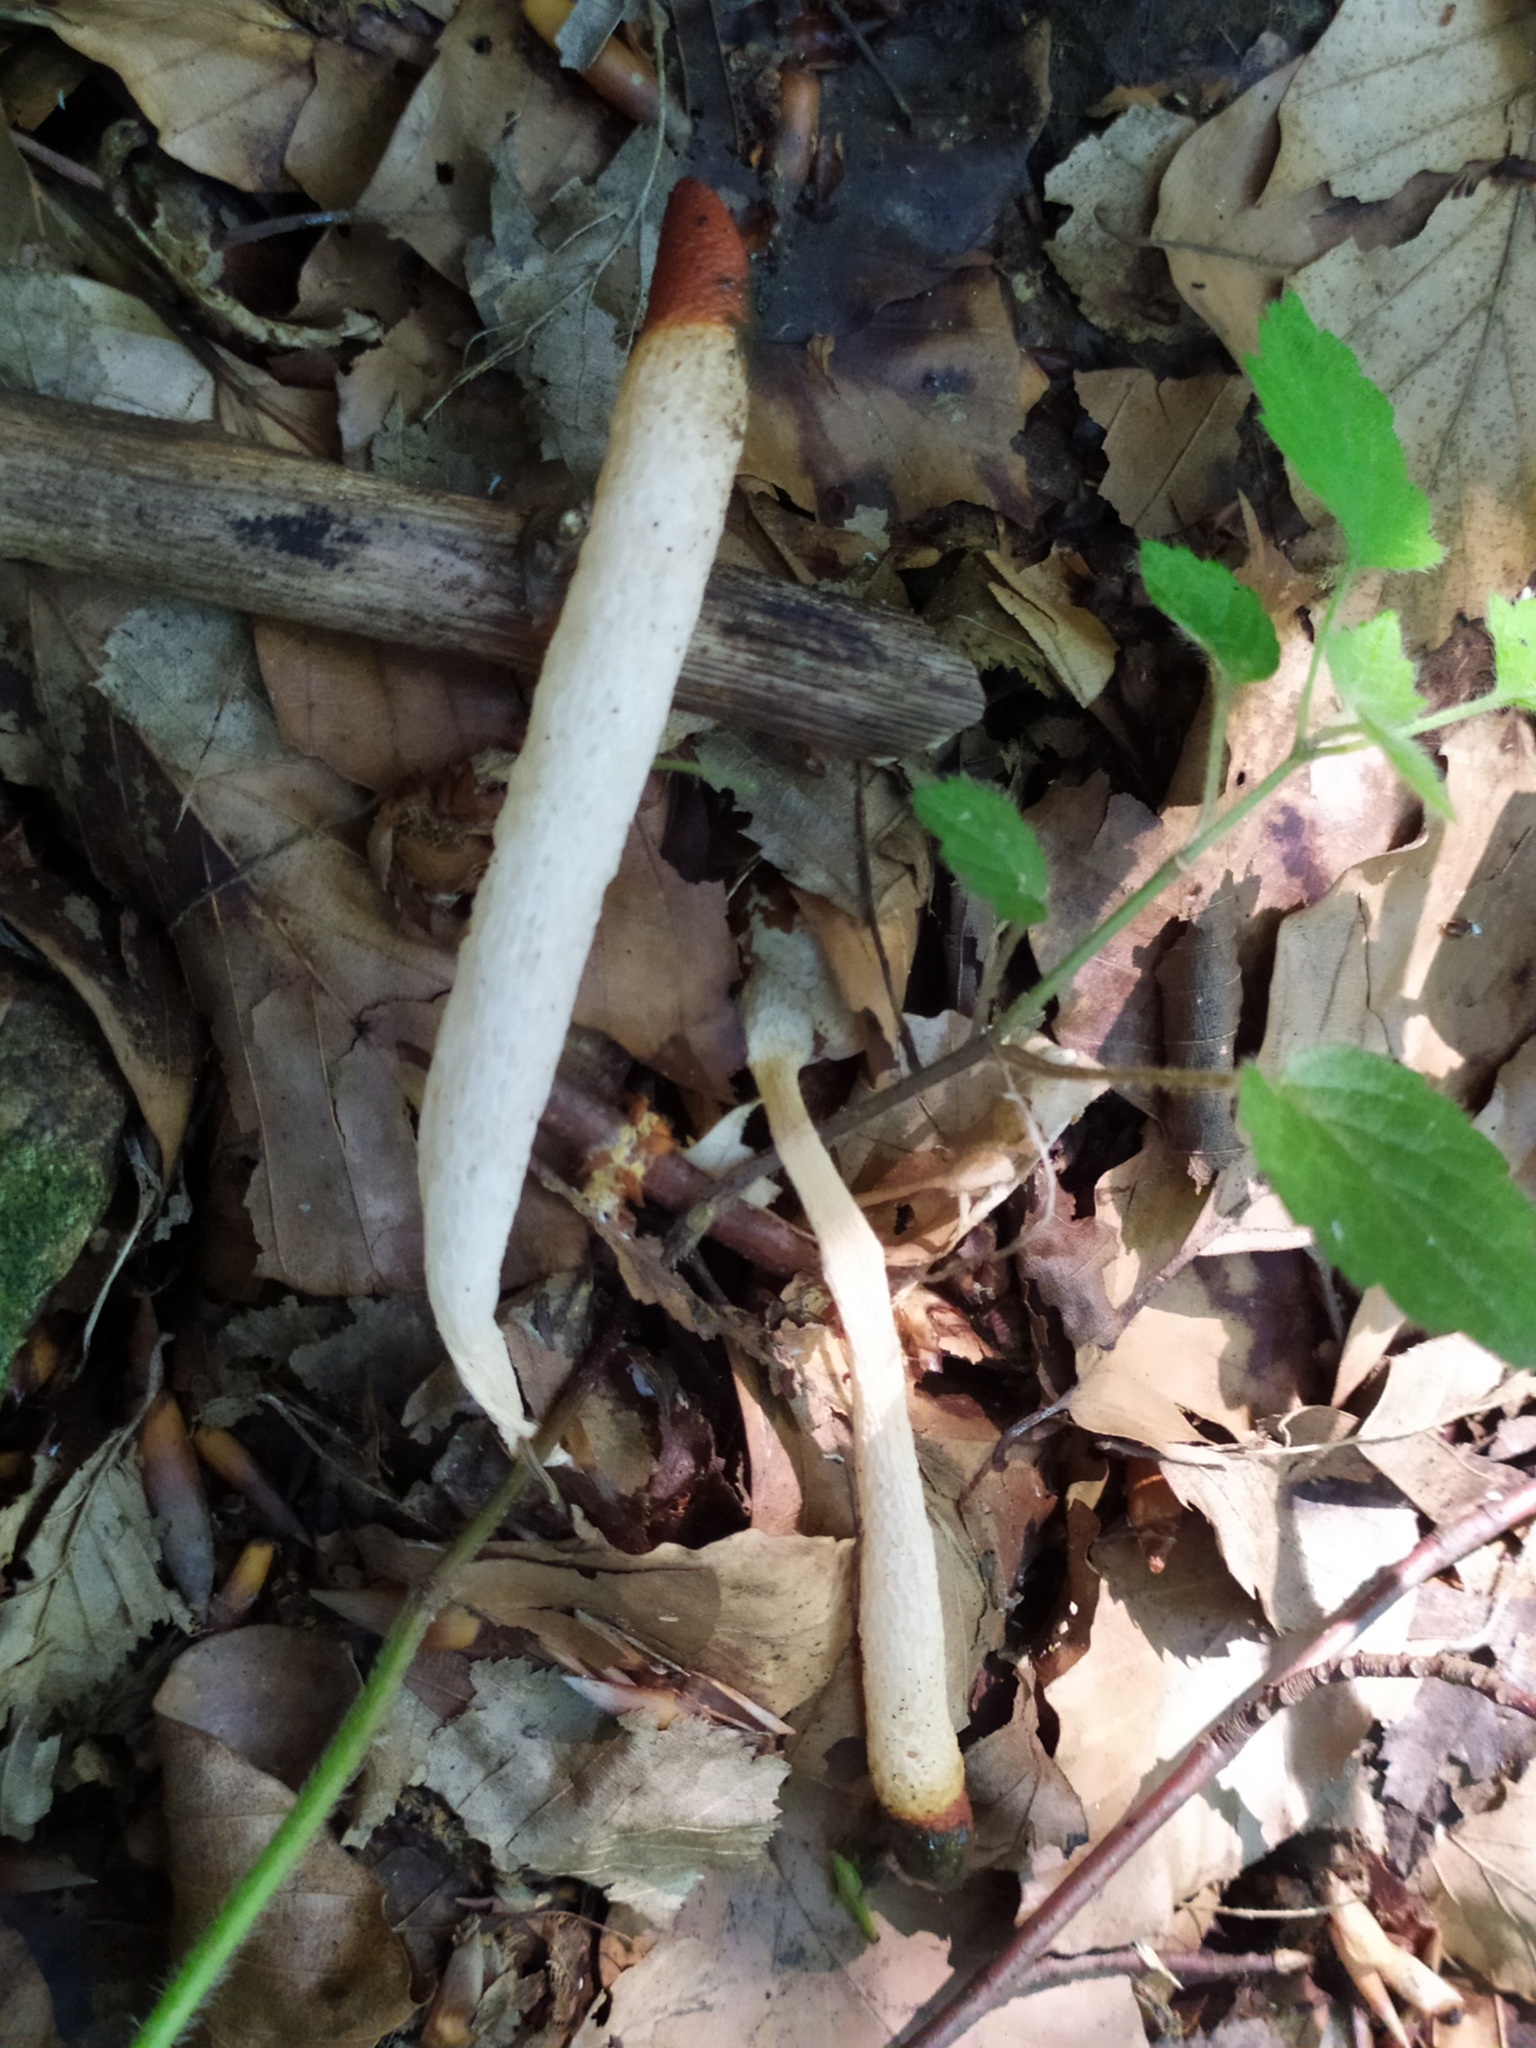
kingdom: Fungi
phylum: Basidiomycota
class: Agaricomycetes
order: Phallales
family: Phallaceae
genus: Mutinus
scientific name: Mutinus caninus
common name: Dog stinkhorn
